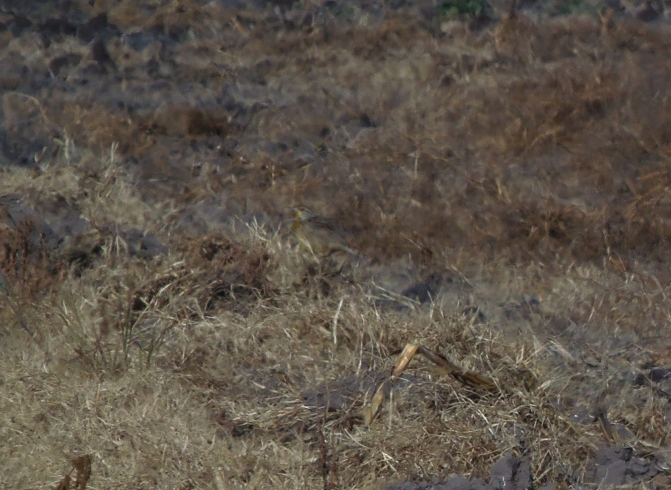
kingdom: Animalia
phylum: Chordata
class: Aves
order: Passeriformes
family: Icteridae
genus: Sturnella
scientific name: Sturnella lilianae
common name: Lilian's meadowlark
